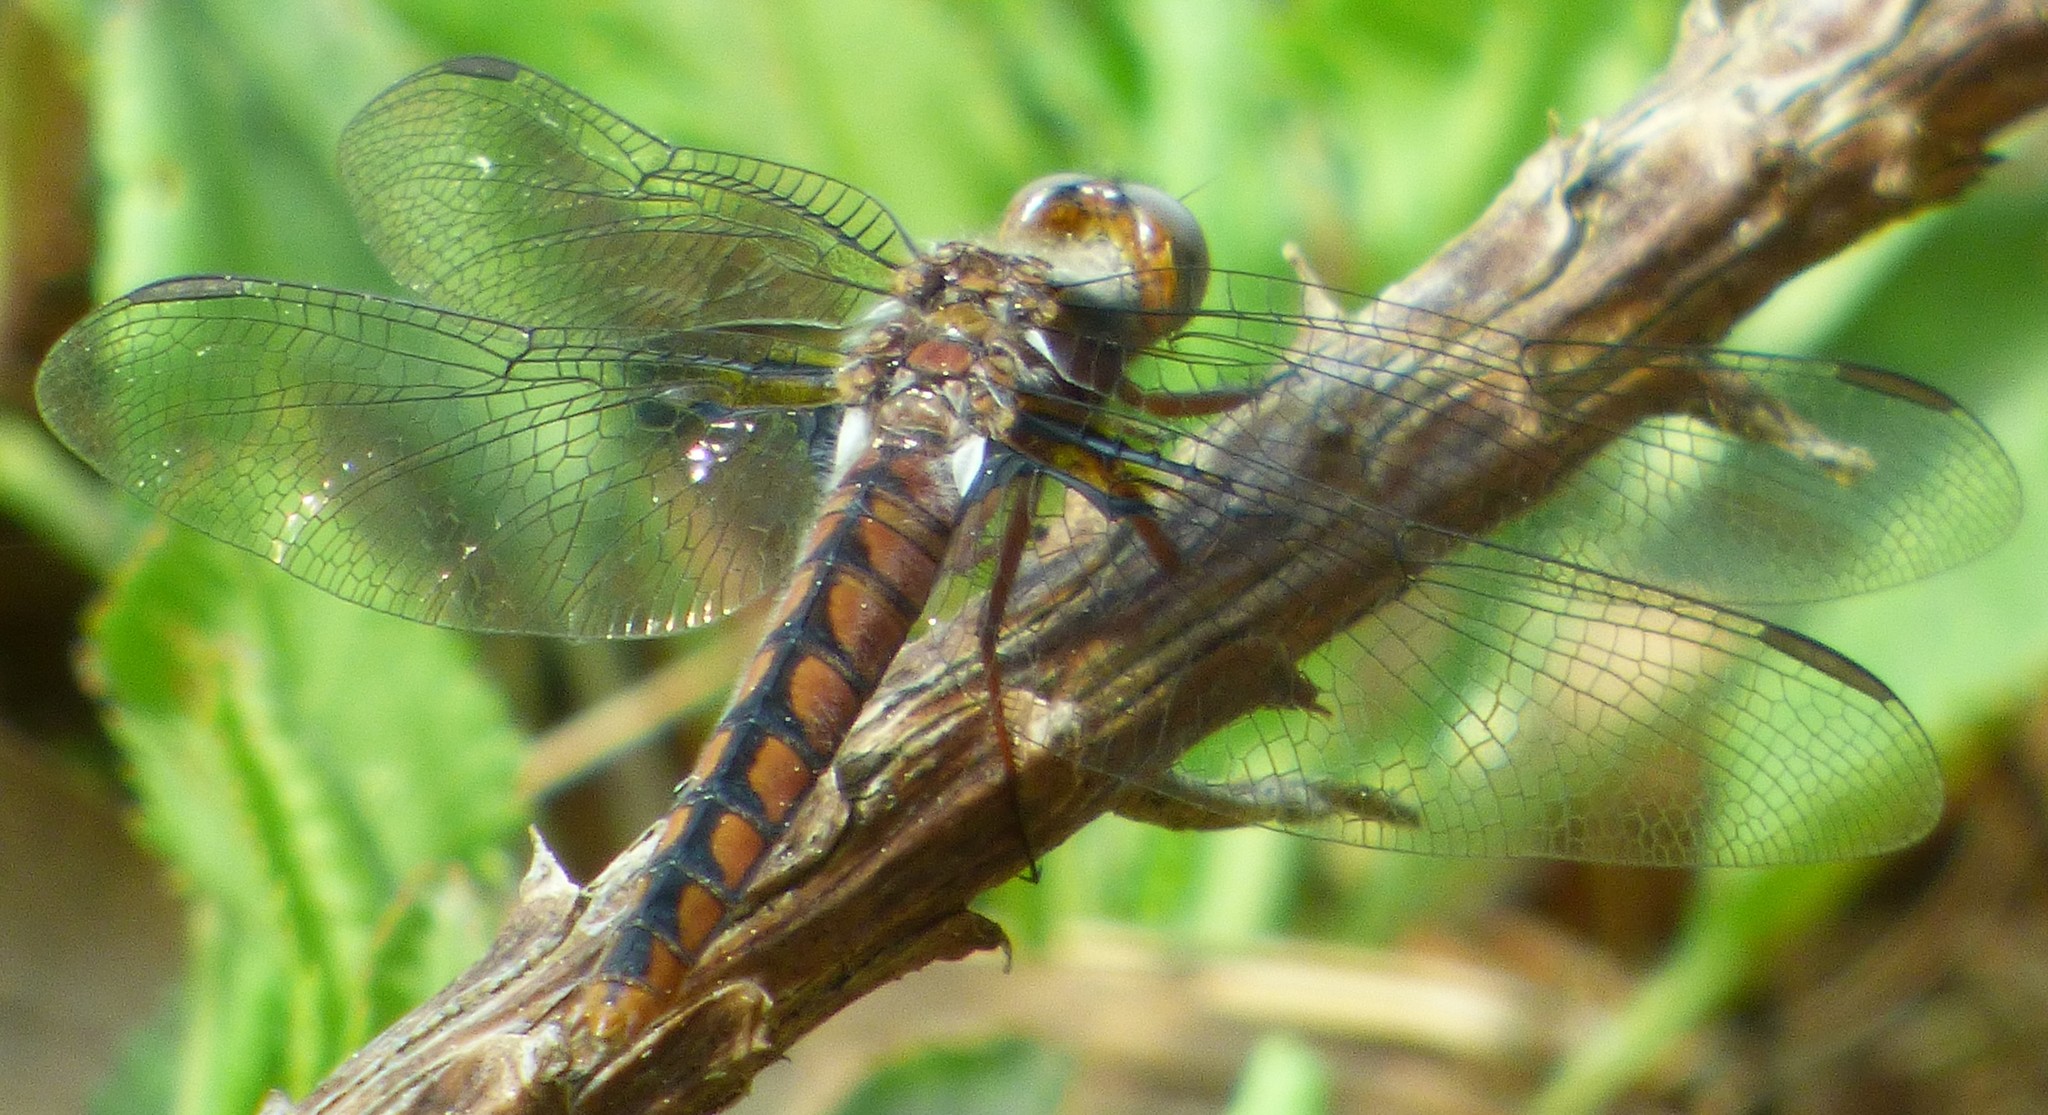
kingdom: Animalia
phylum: Arthropoda
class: Insecta
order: Odonata
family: Libellulidae
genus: Ladona
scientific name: Ladona deplanata
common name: Blue corporal
